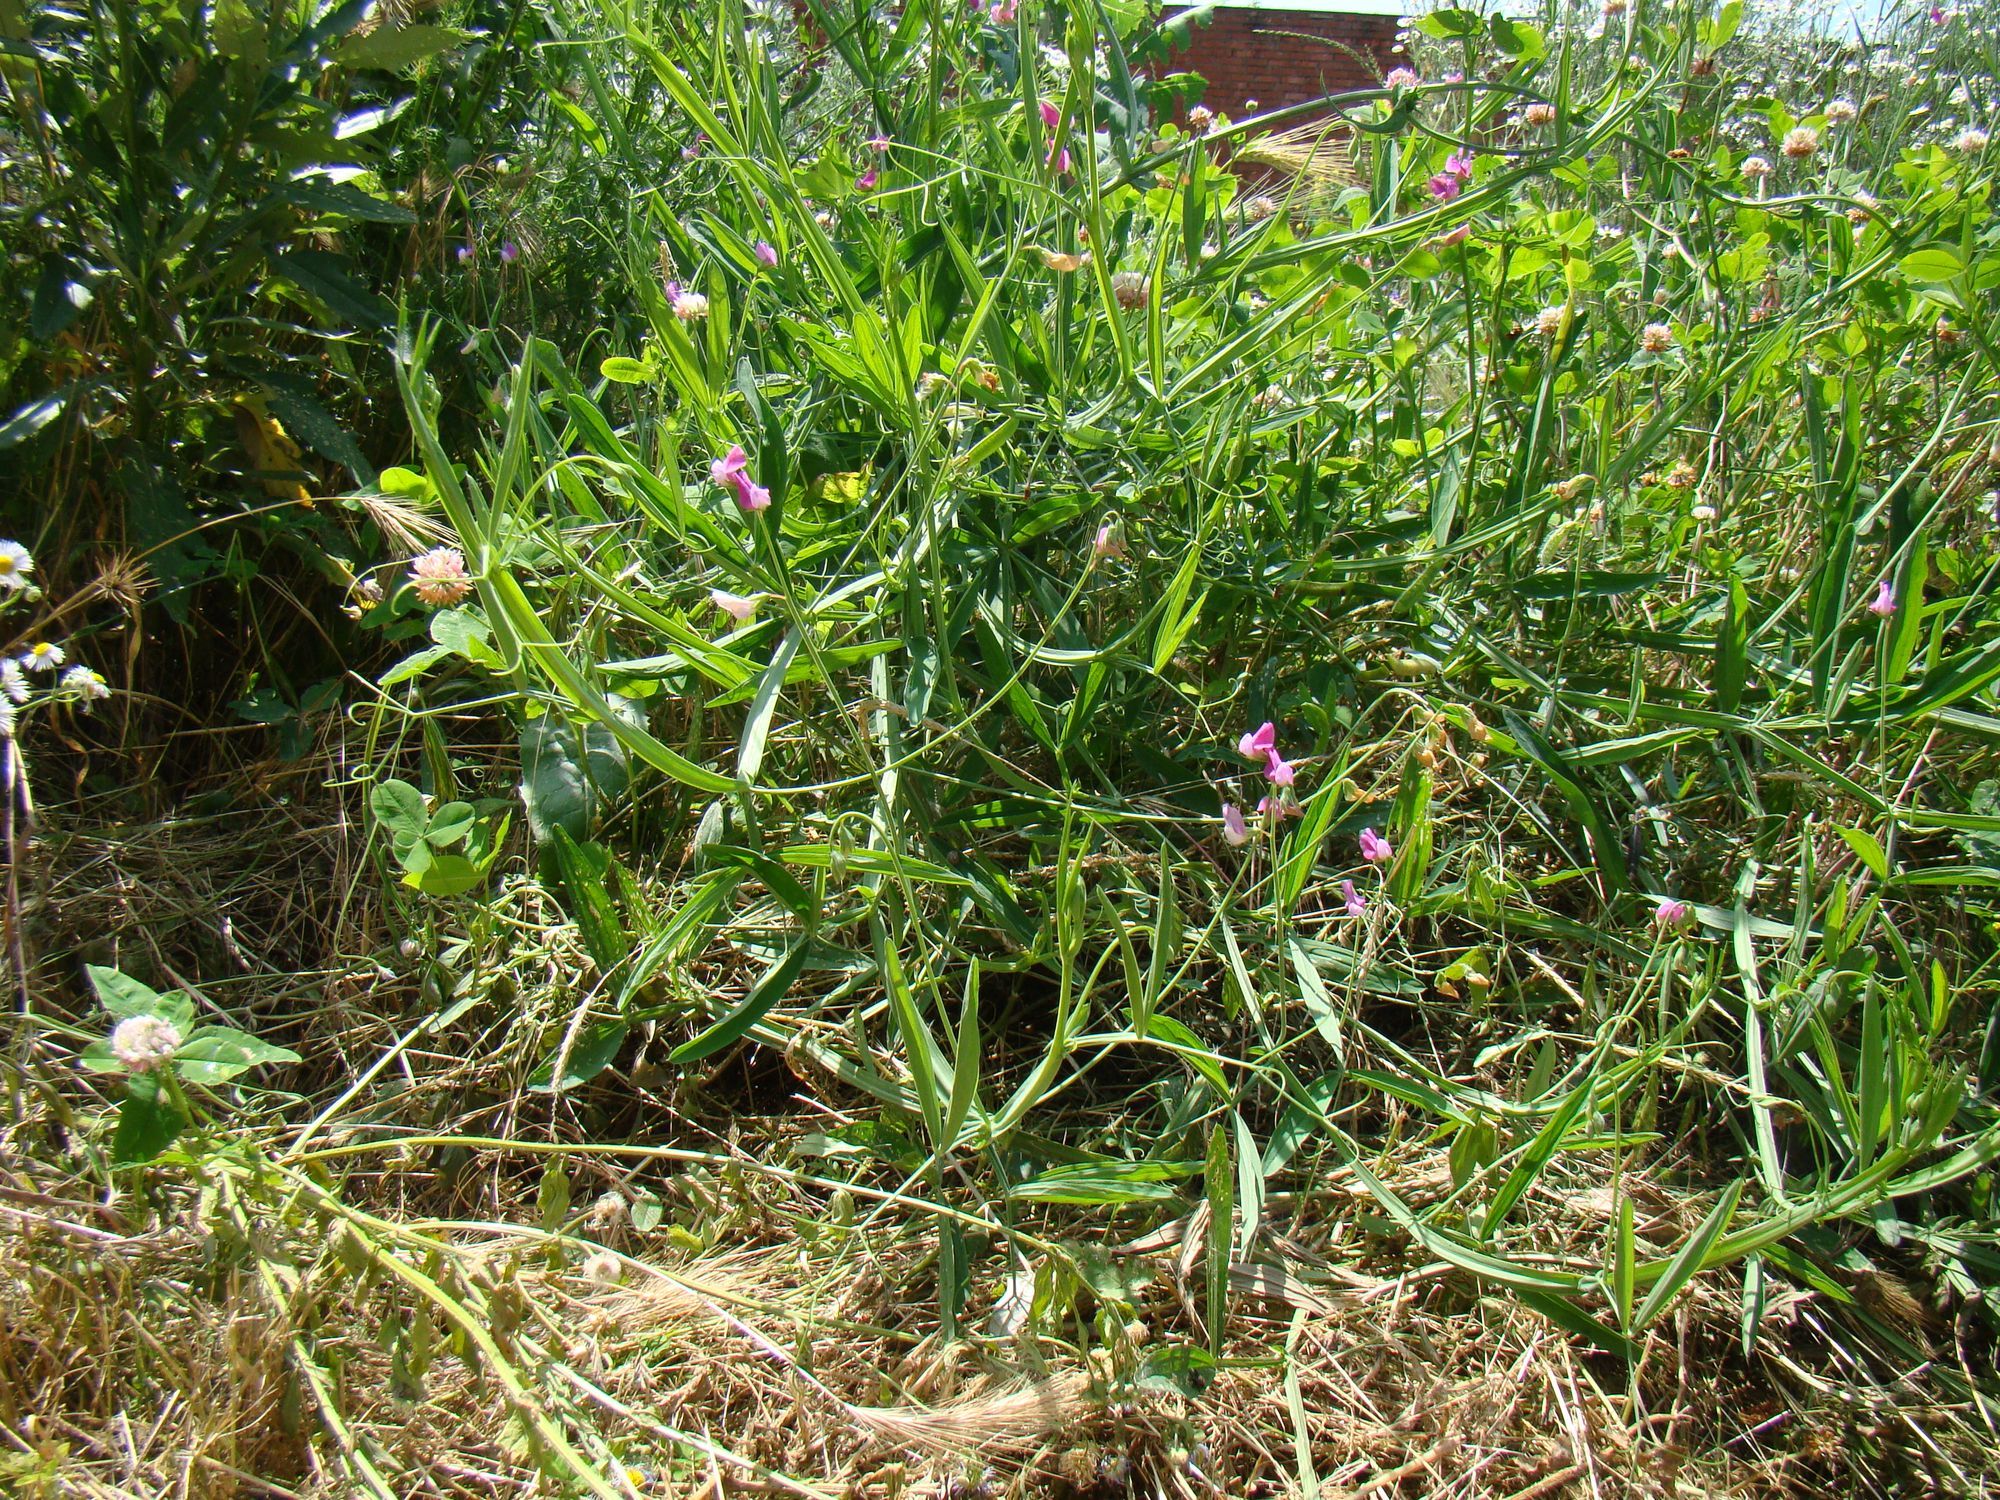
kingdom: Plantae
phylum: Tracheophyta
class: Magnoliopsida
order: Fabales
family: Fabaceae
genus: Lathyrus
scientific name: Lathyrus hirsutus
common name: Hairy vetchling
